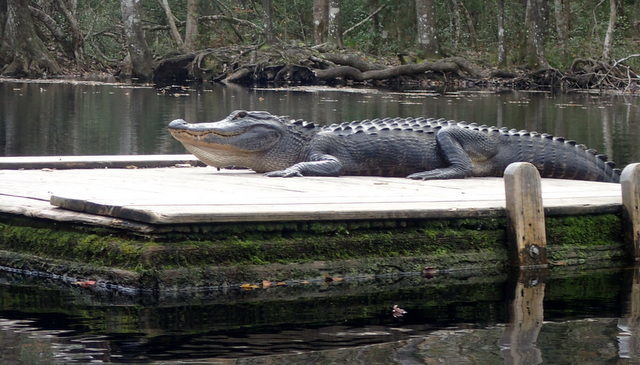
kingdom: Animalia
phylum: Chordata
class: Crocodylia
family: Alligatoridae
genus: Alligator
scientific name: Alligator mississippiensis
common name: American alligator
